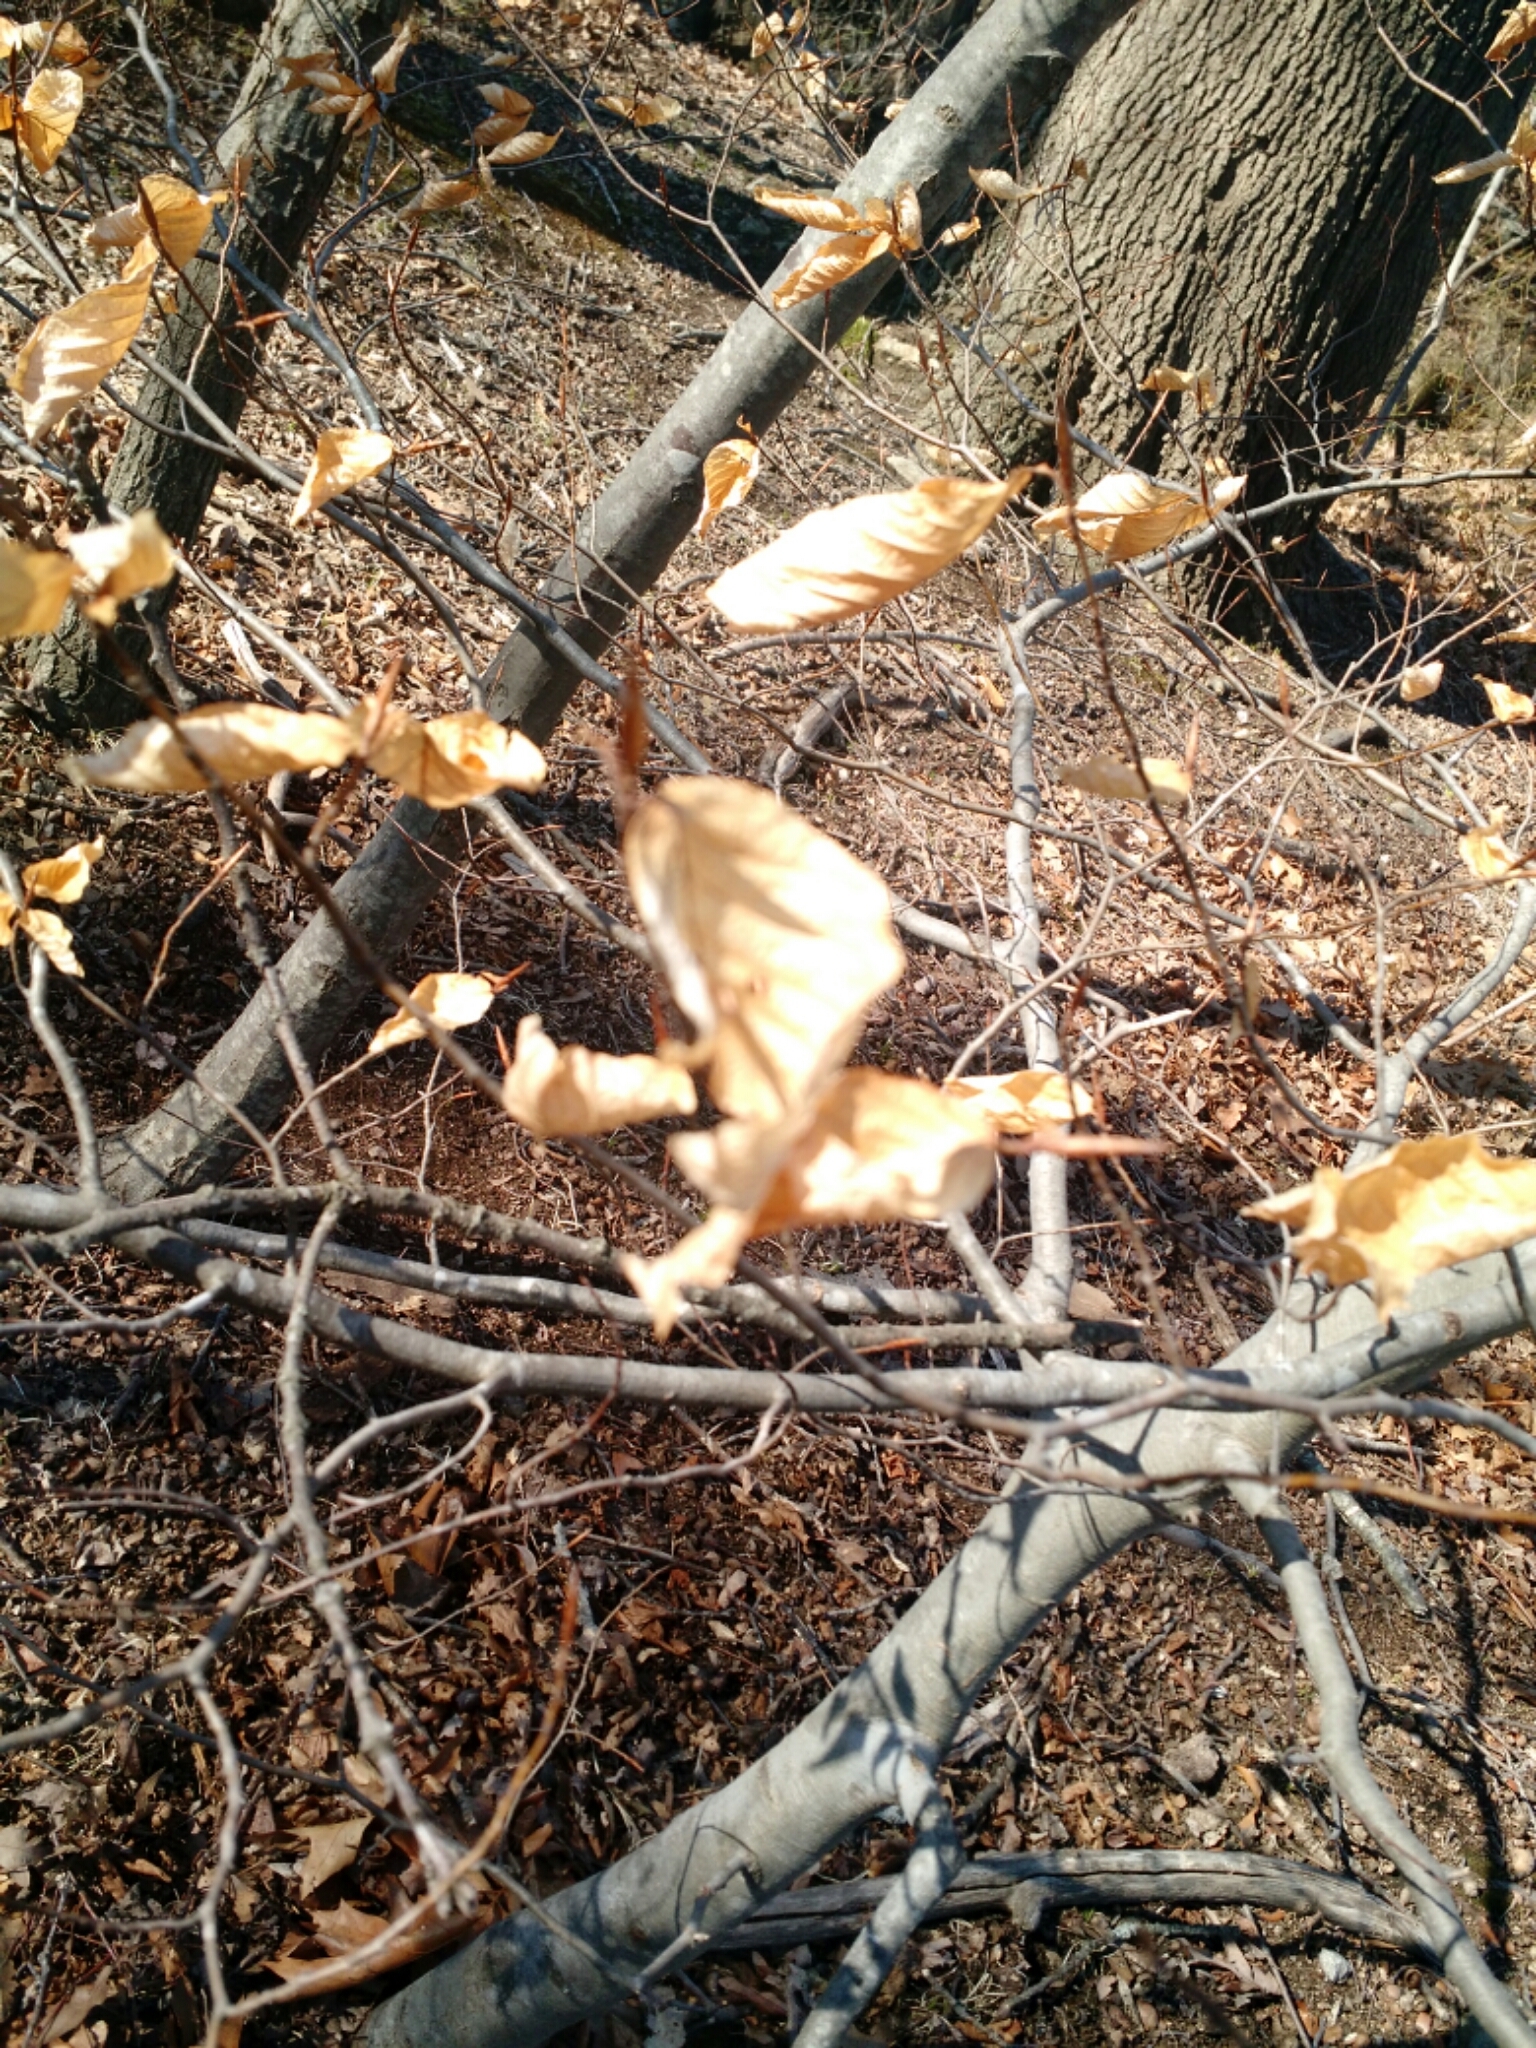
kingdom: Plantae
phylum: Tracheophyta
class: Magnoliopsida
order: Fagales
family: Fagaceae
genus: Fagus
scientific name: Fagus grandifolia
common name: American beech
